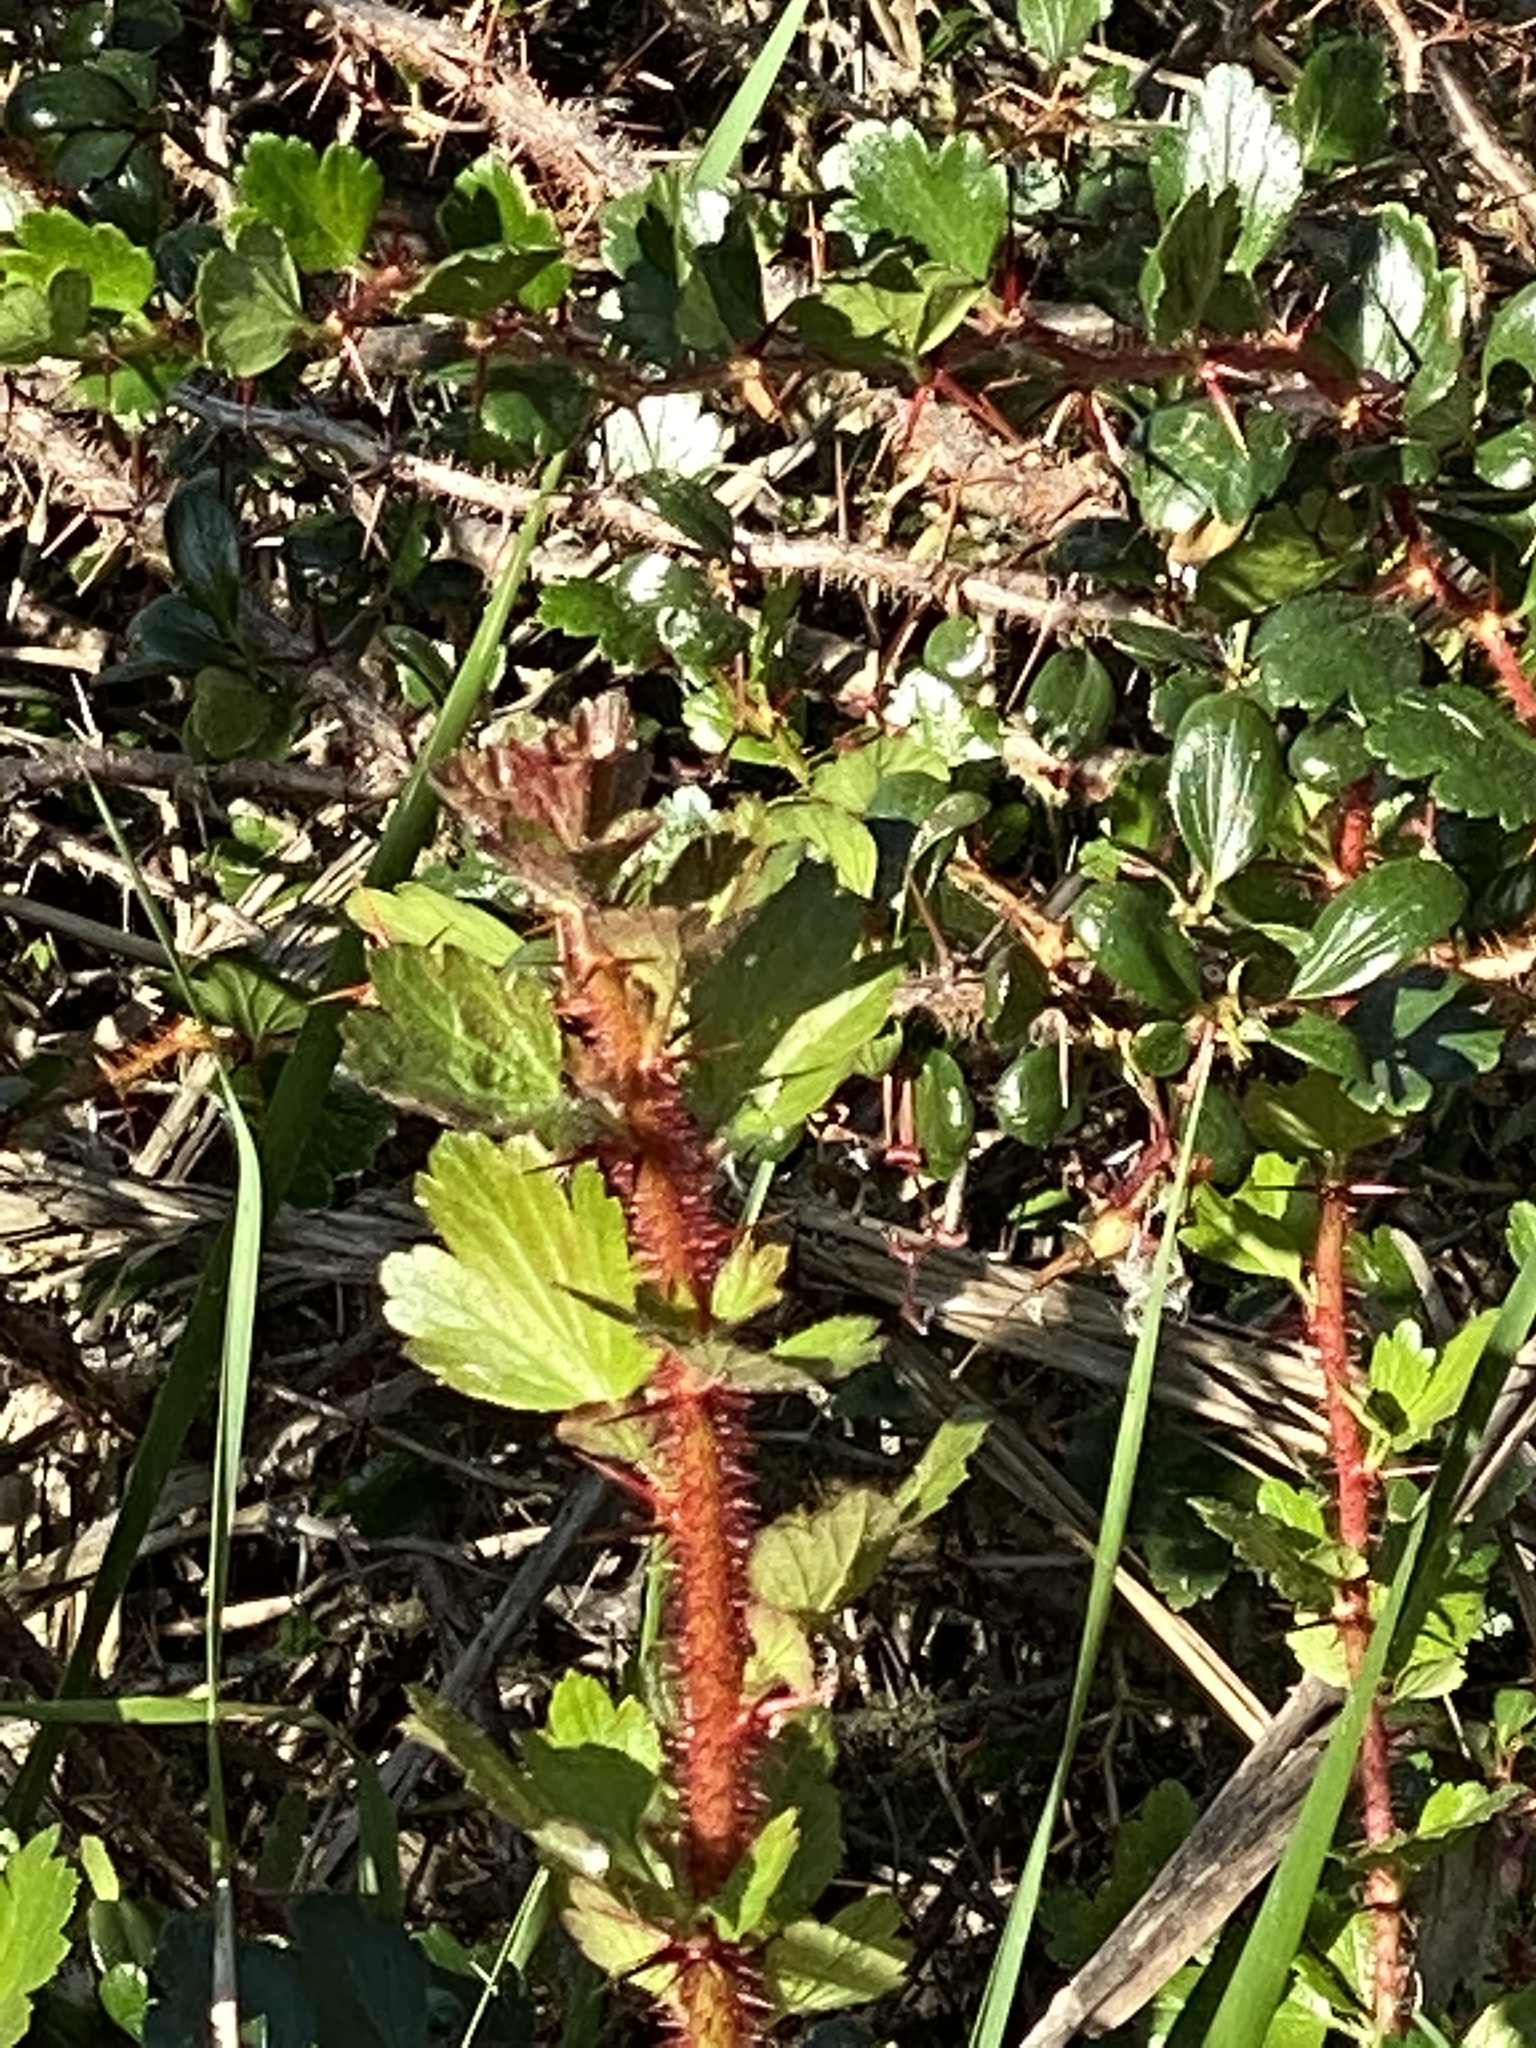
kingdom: Plantae
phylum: Tracheophyta
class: Magnoliopsida
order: Saxifragales
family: Grossulariaceae
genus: Ribes
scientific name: Ribes speciosum
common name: Fuchsia-flower gooseberry
